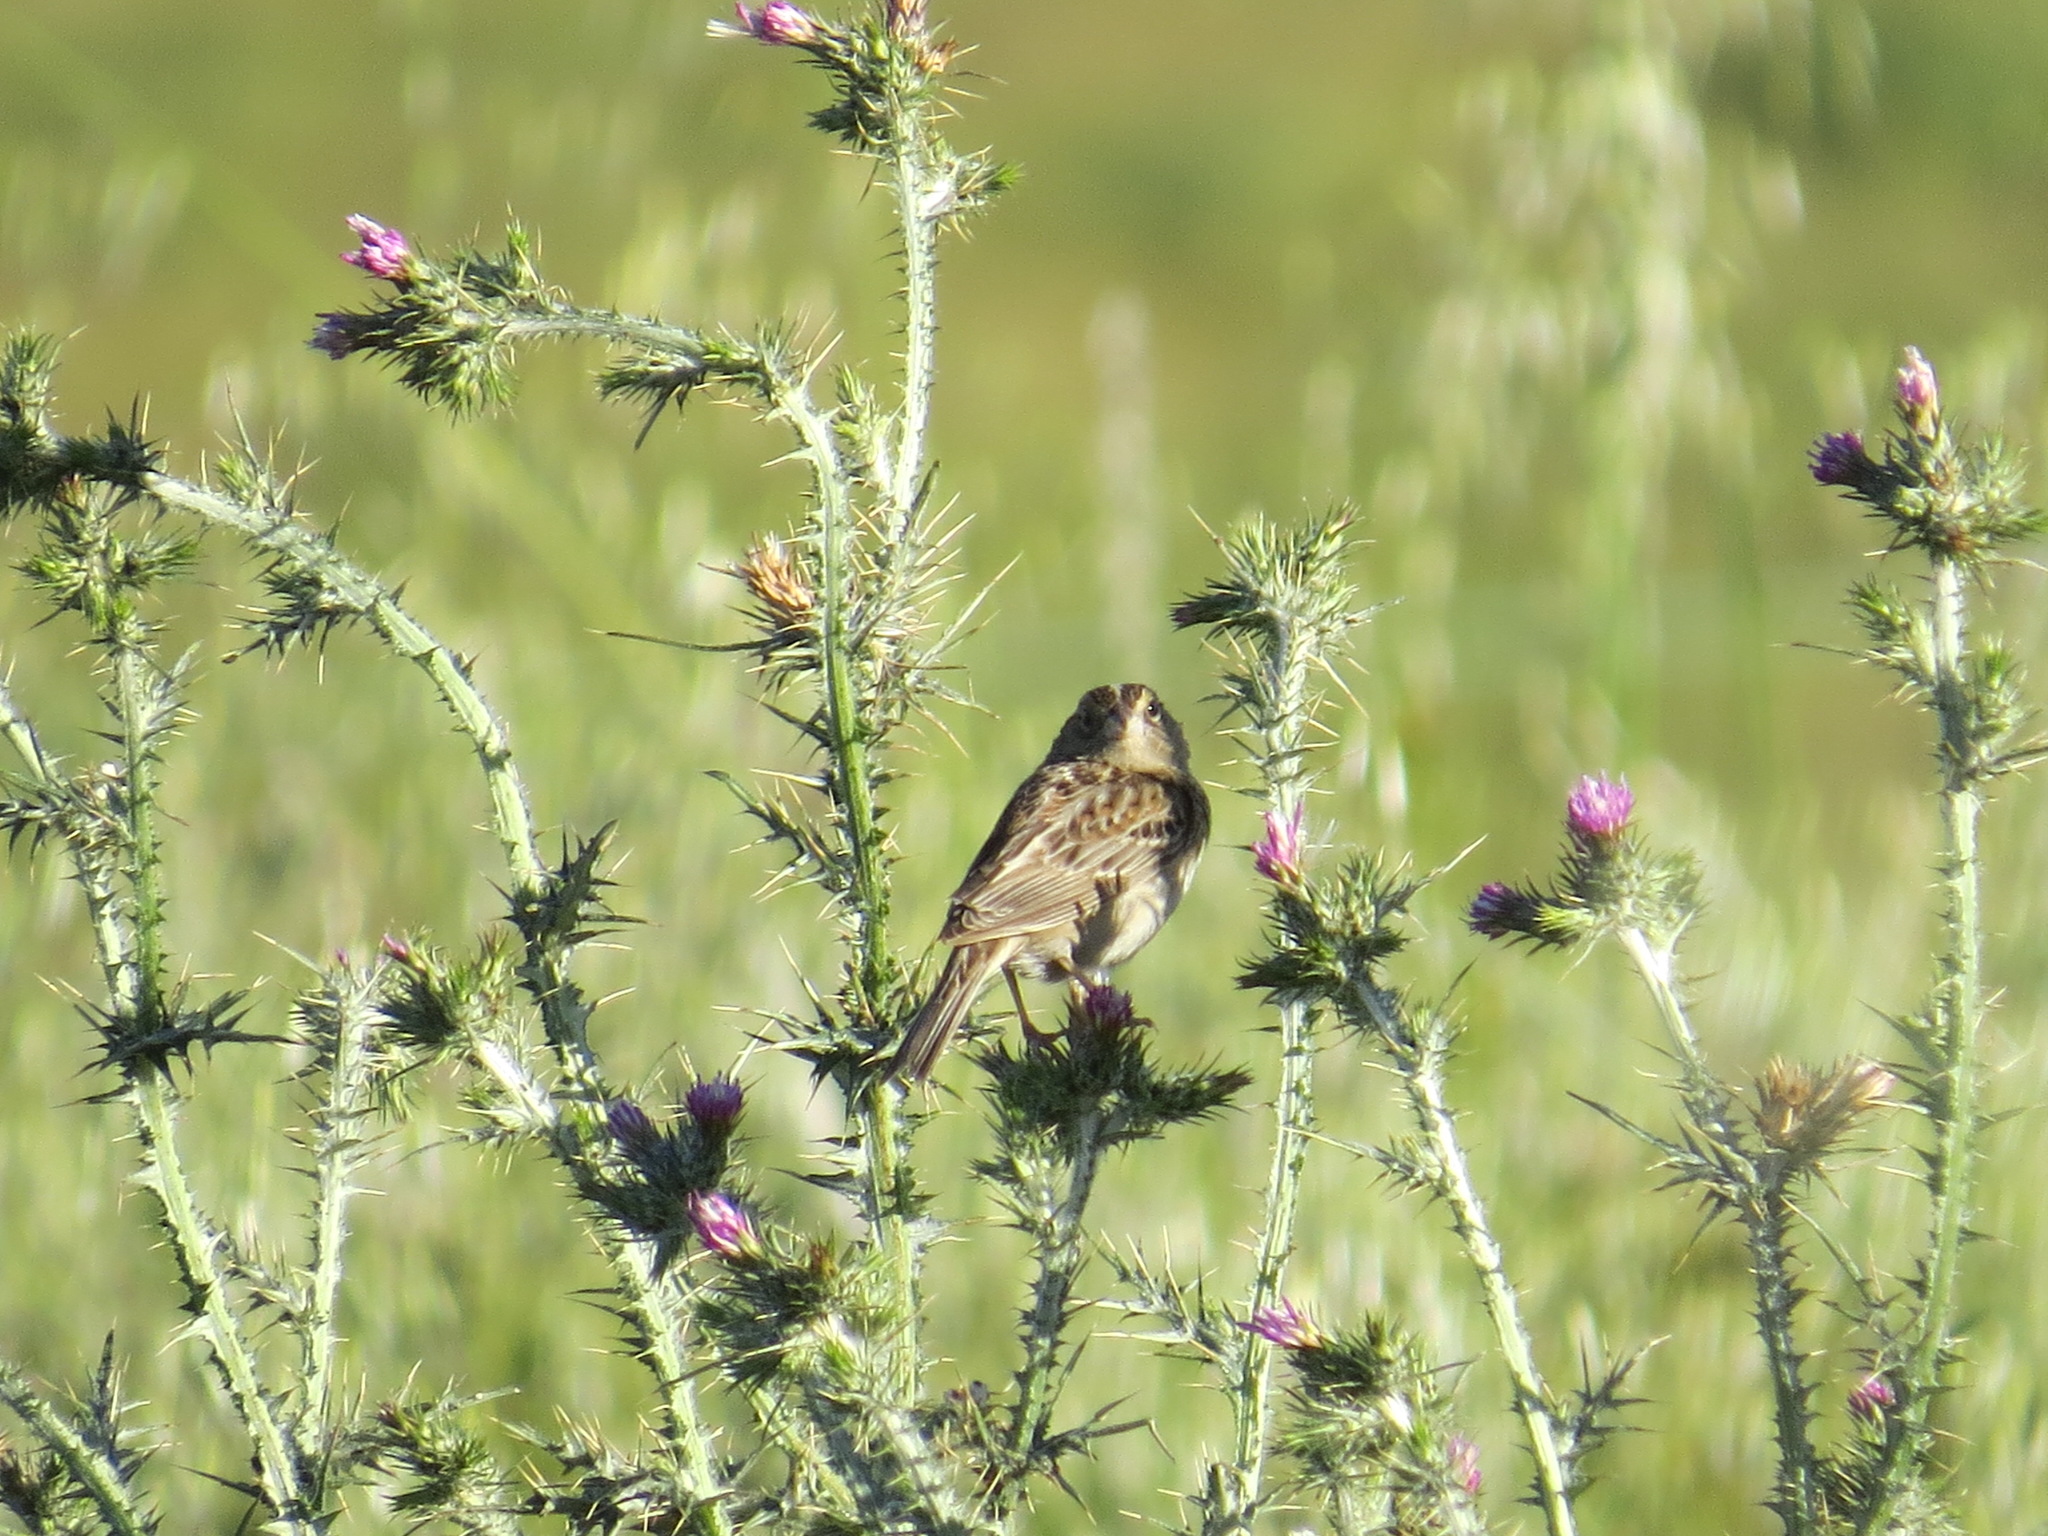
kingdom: Animalia
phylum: Chordata
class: Aves
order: Passeriformes
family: Passerellidae
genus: Ammodramus
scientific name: Ammodramus savannarum
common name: Grasshopper sparrow
